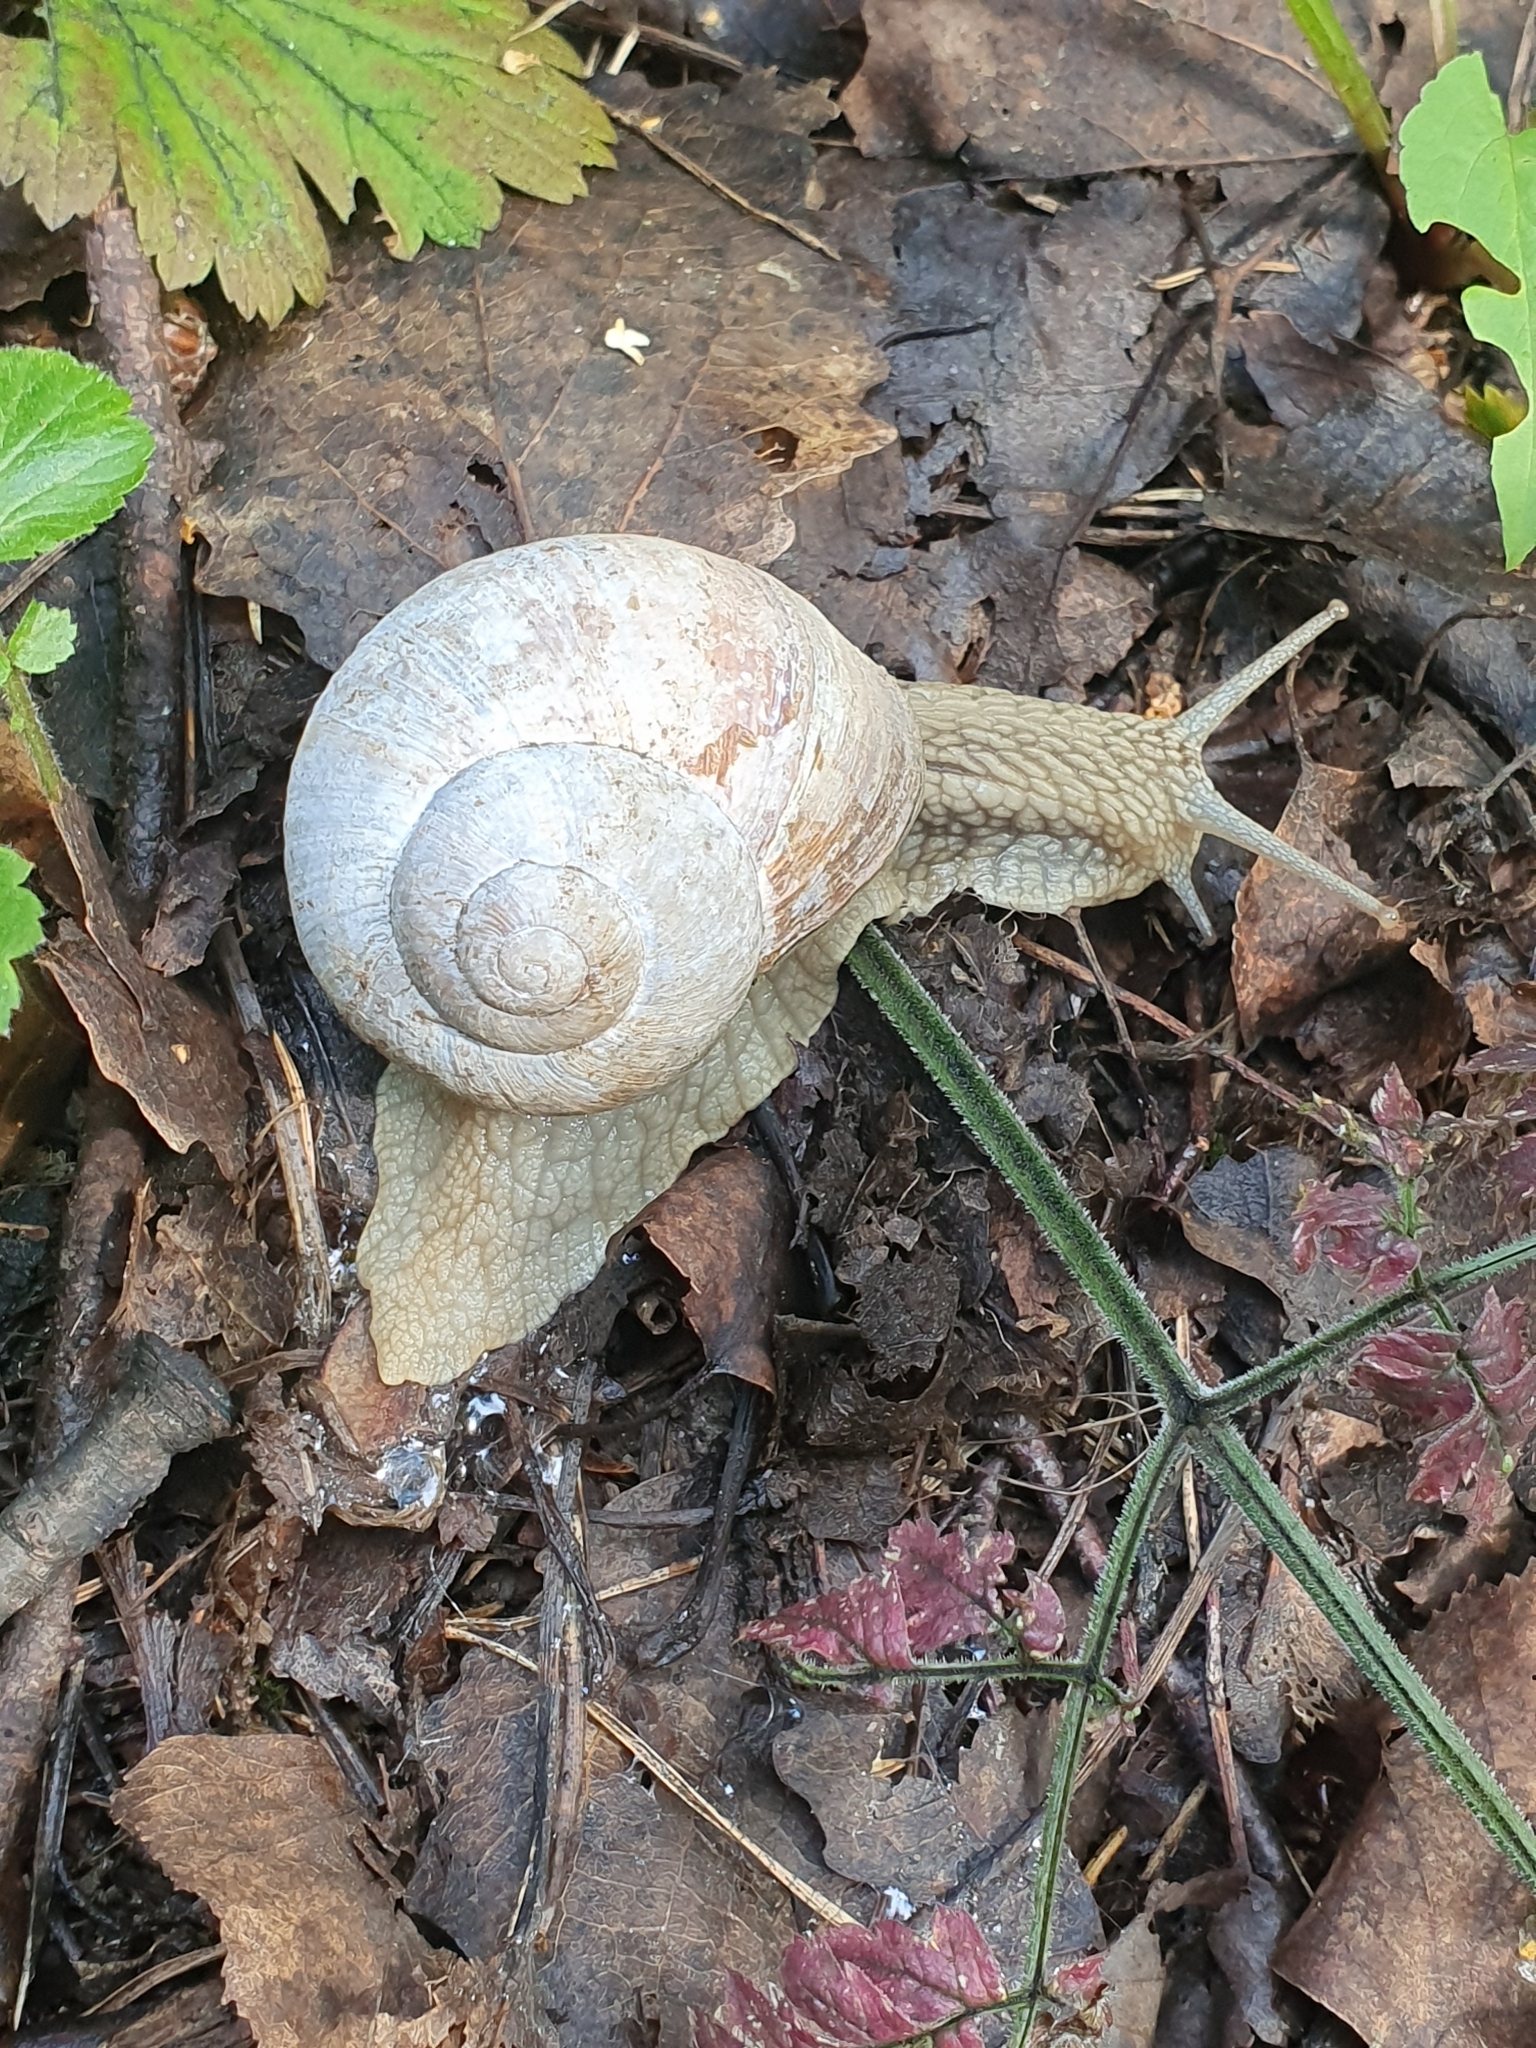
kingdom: Animalia
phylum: Mollusca
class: Gastropoda
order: Stylommatophora
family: Helicidae
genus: Helix
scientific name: Helix pomatia
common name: Roman snail
